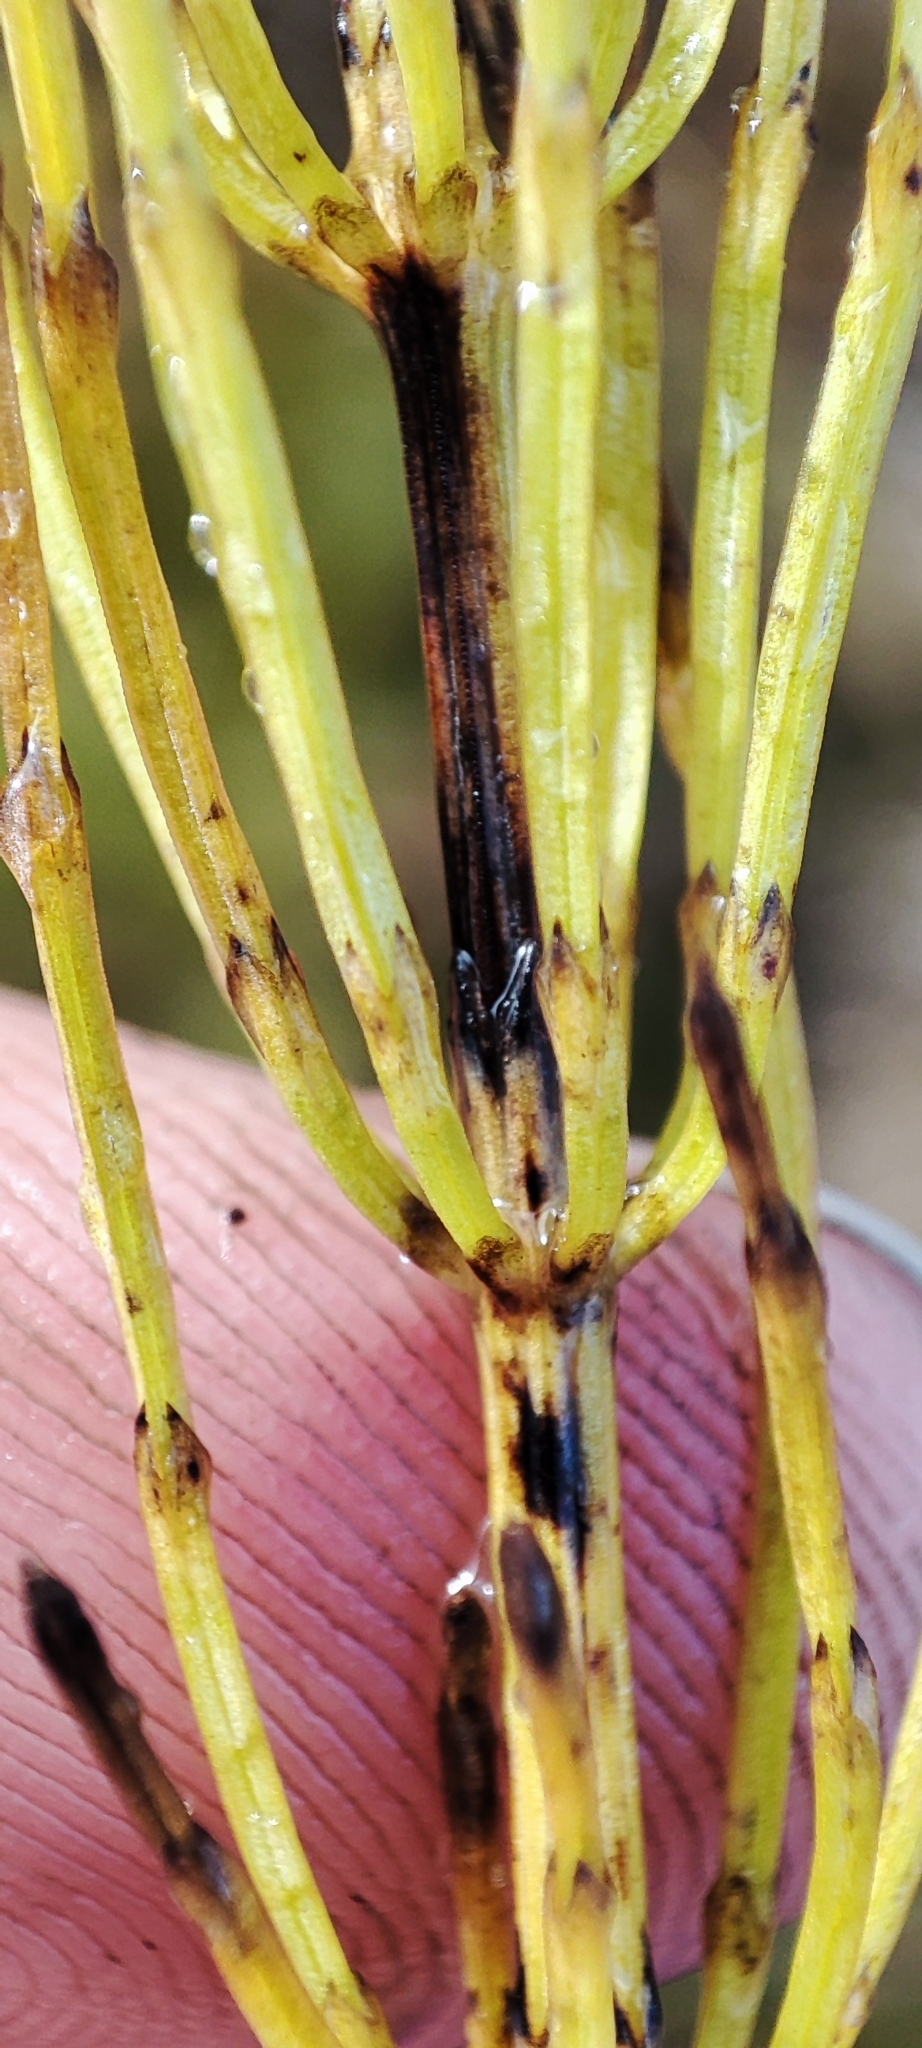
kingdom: Plantae
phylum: Tracheophyta
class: Polypodiopsida
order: Equisetales
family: Equisetaceae
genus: Equisetum
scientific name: Equisetum palustre
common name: Marsh horsetail
